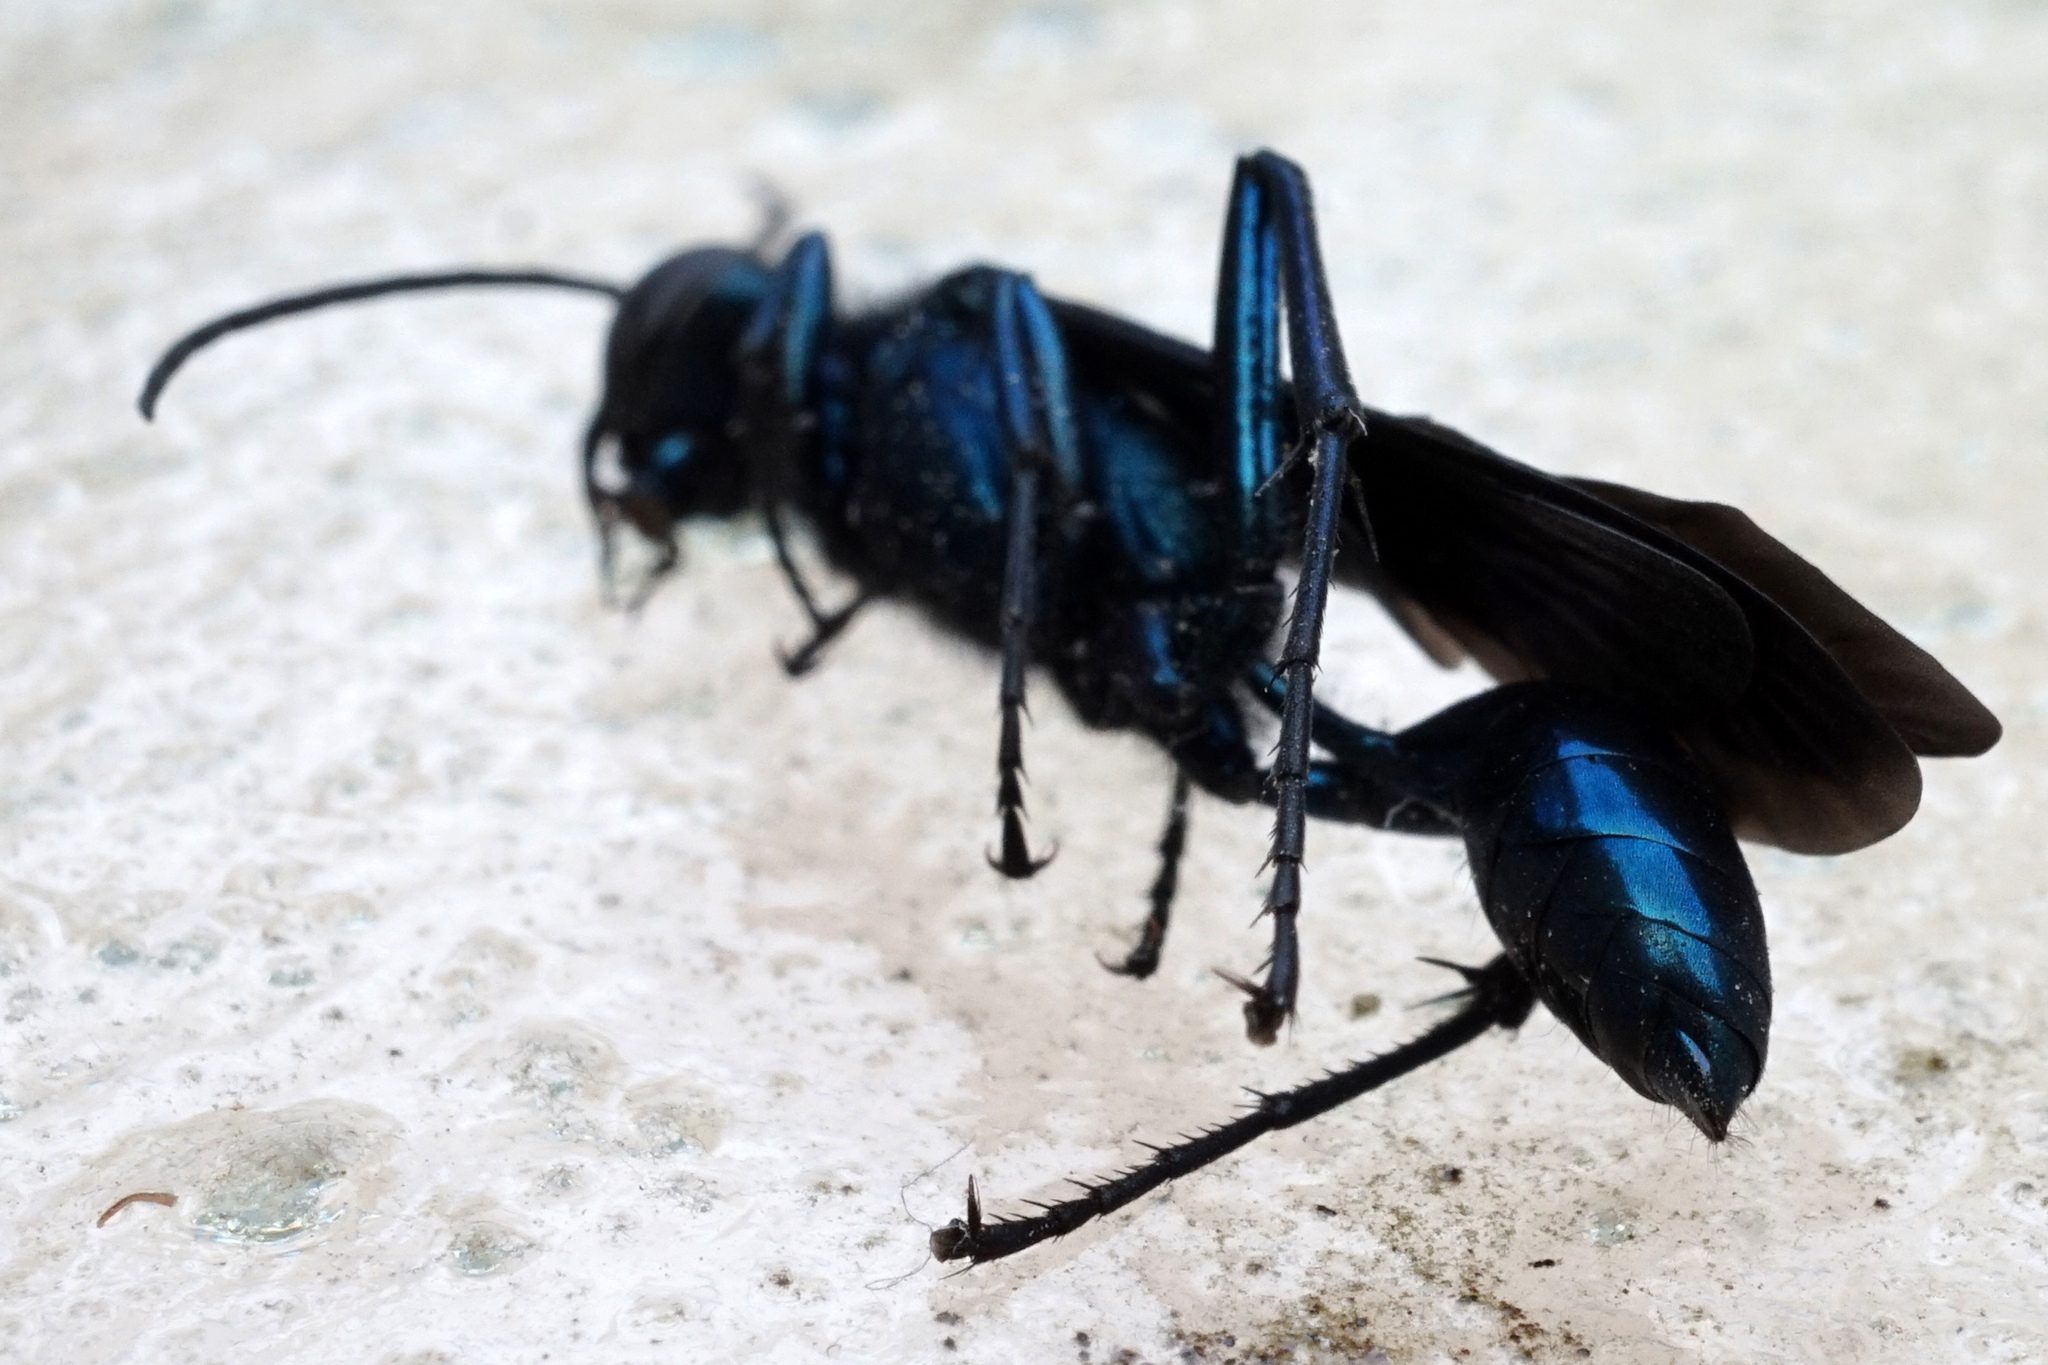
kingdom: Animalia
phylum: Arthropoda
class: Insecta
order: Hymenoptera
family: Sphecidae
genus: Chalybion
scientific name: Chalybion californicum
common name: Mud dauber
